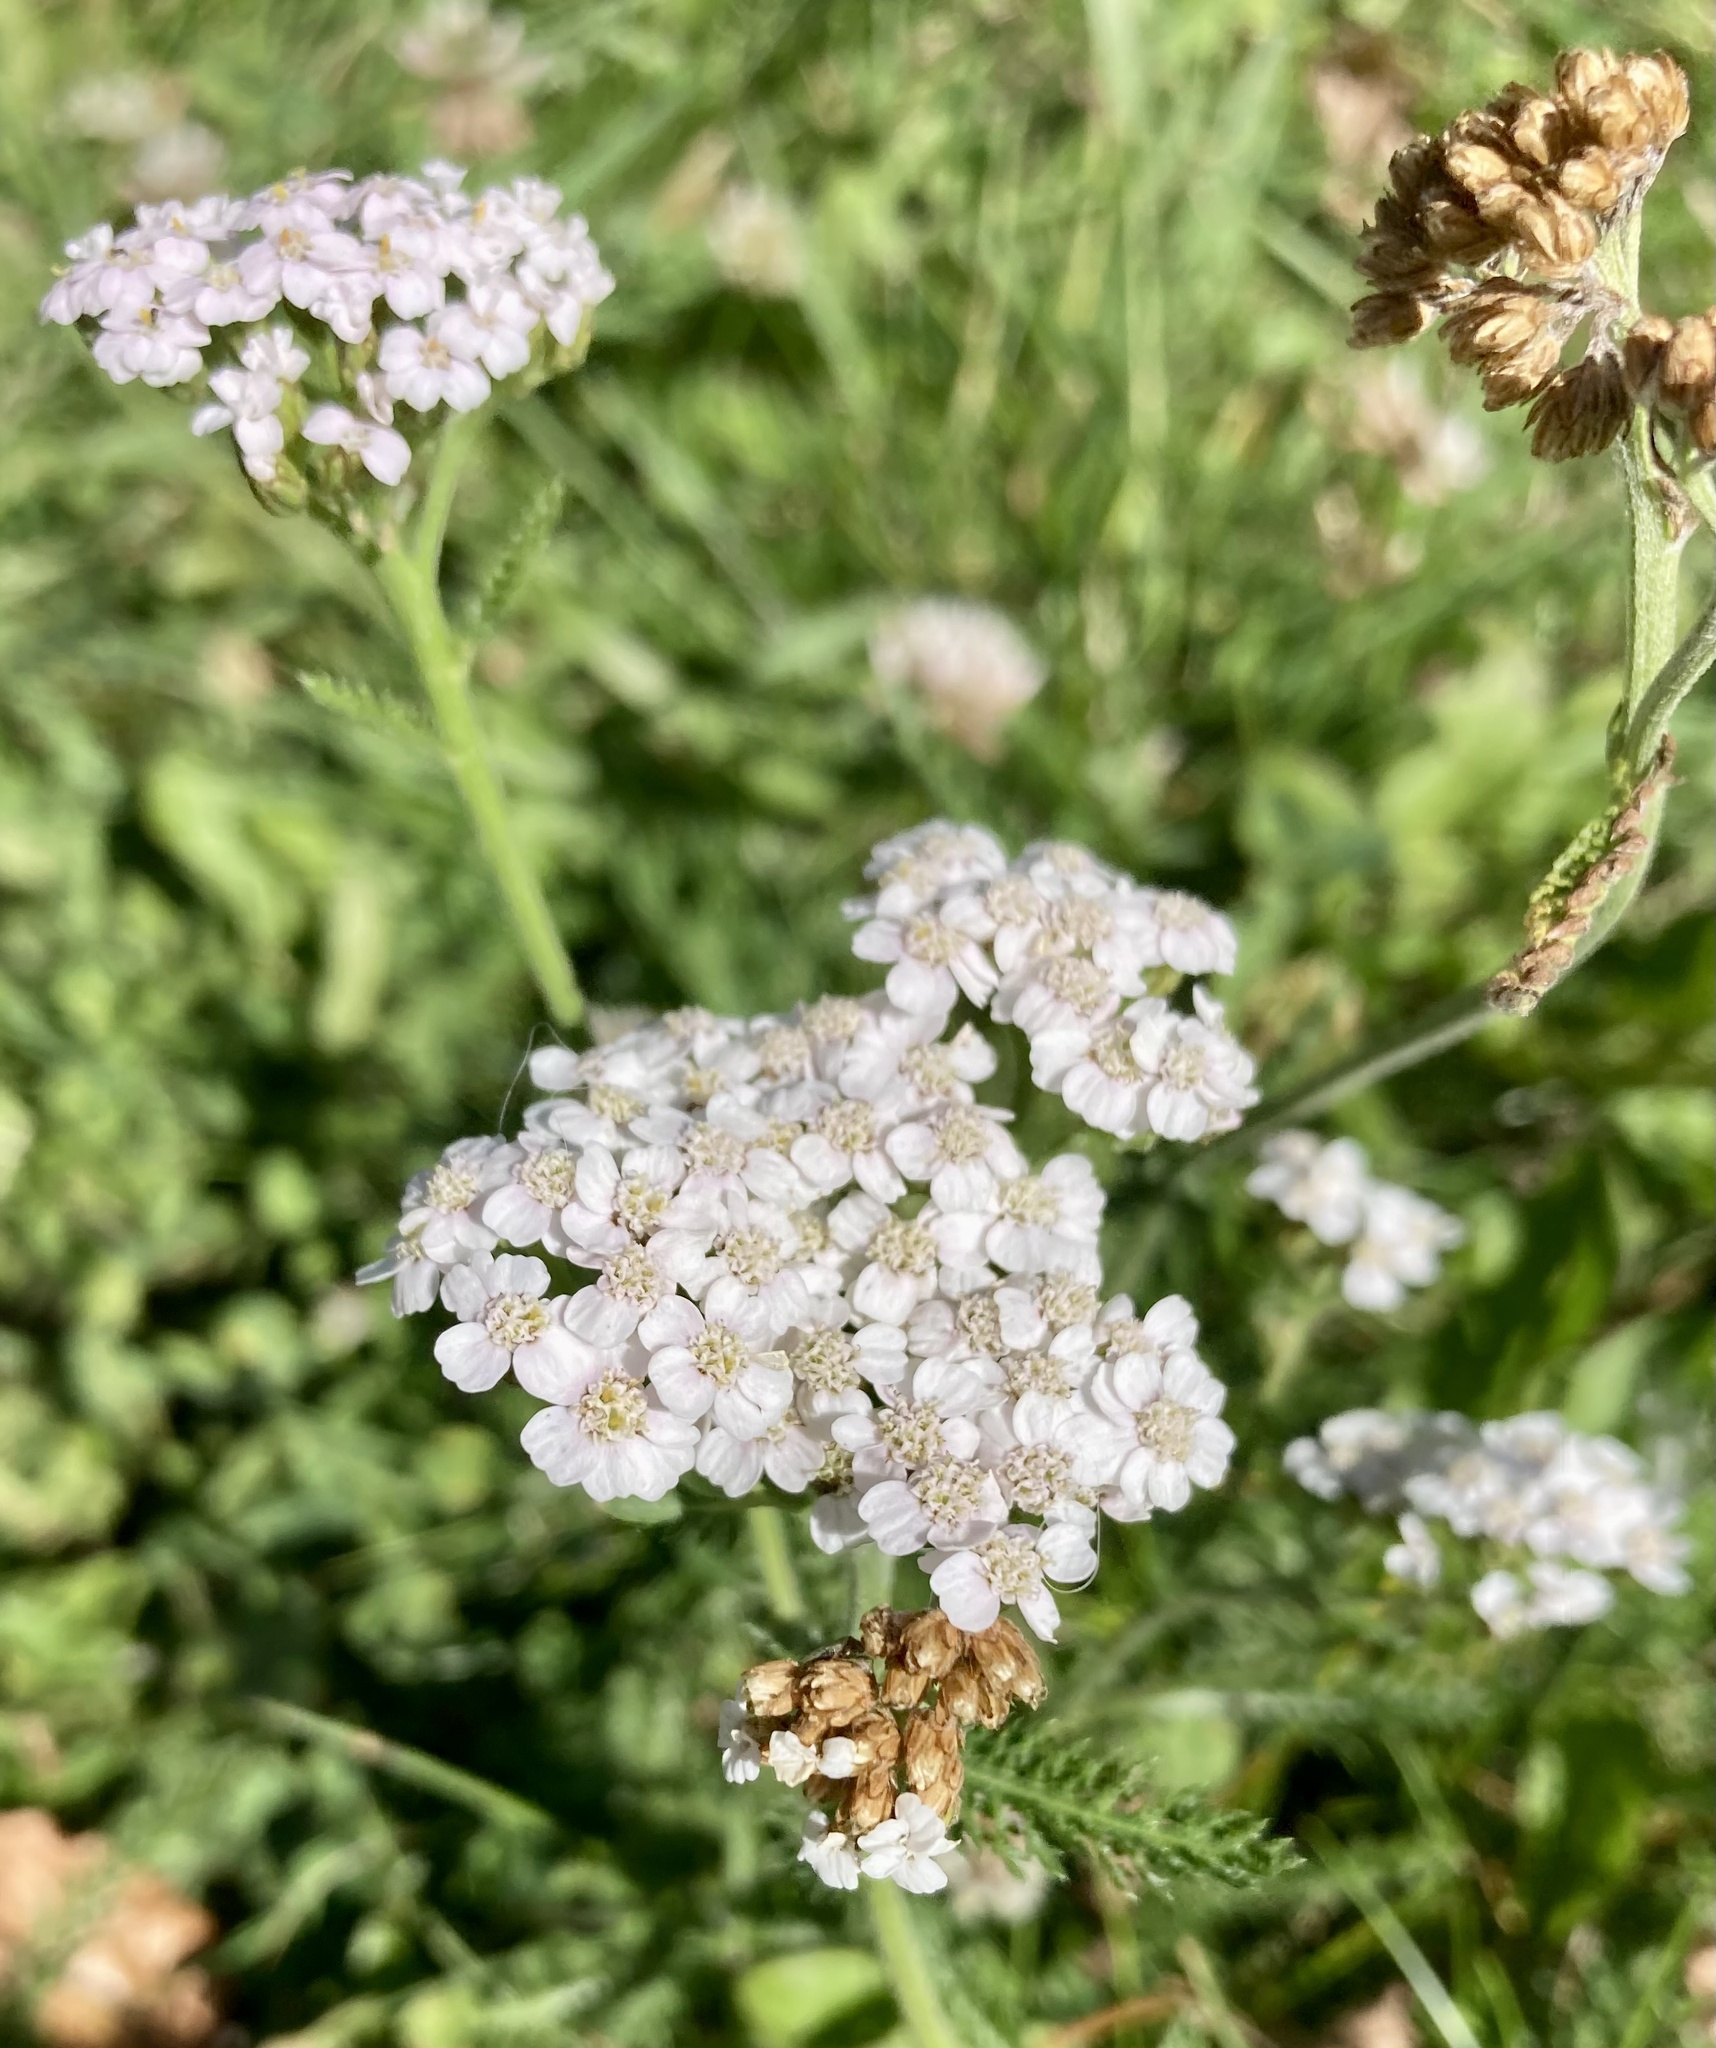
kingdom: Plantae
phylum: Tracheophyta
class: Magnoliopsida
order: Asterales
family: Asteraceae
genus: Achillea
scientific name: Achillea millefolium
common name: Yarrow
